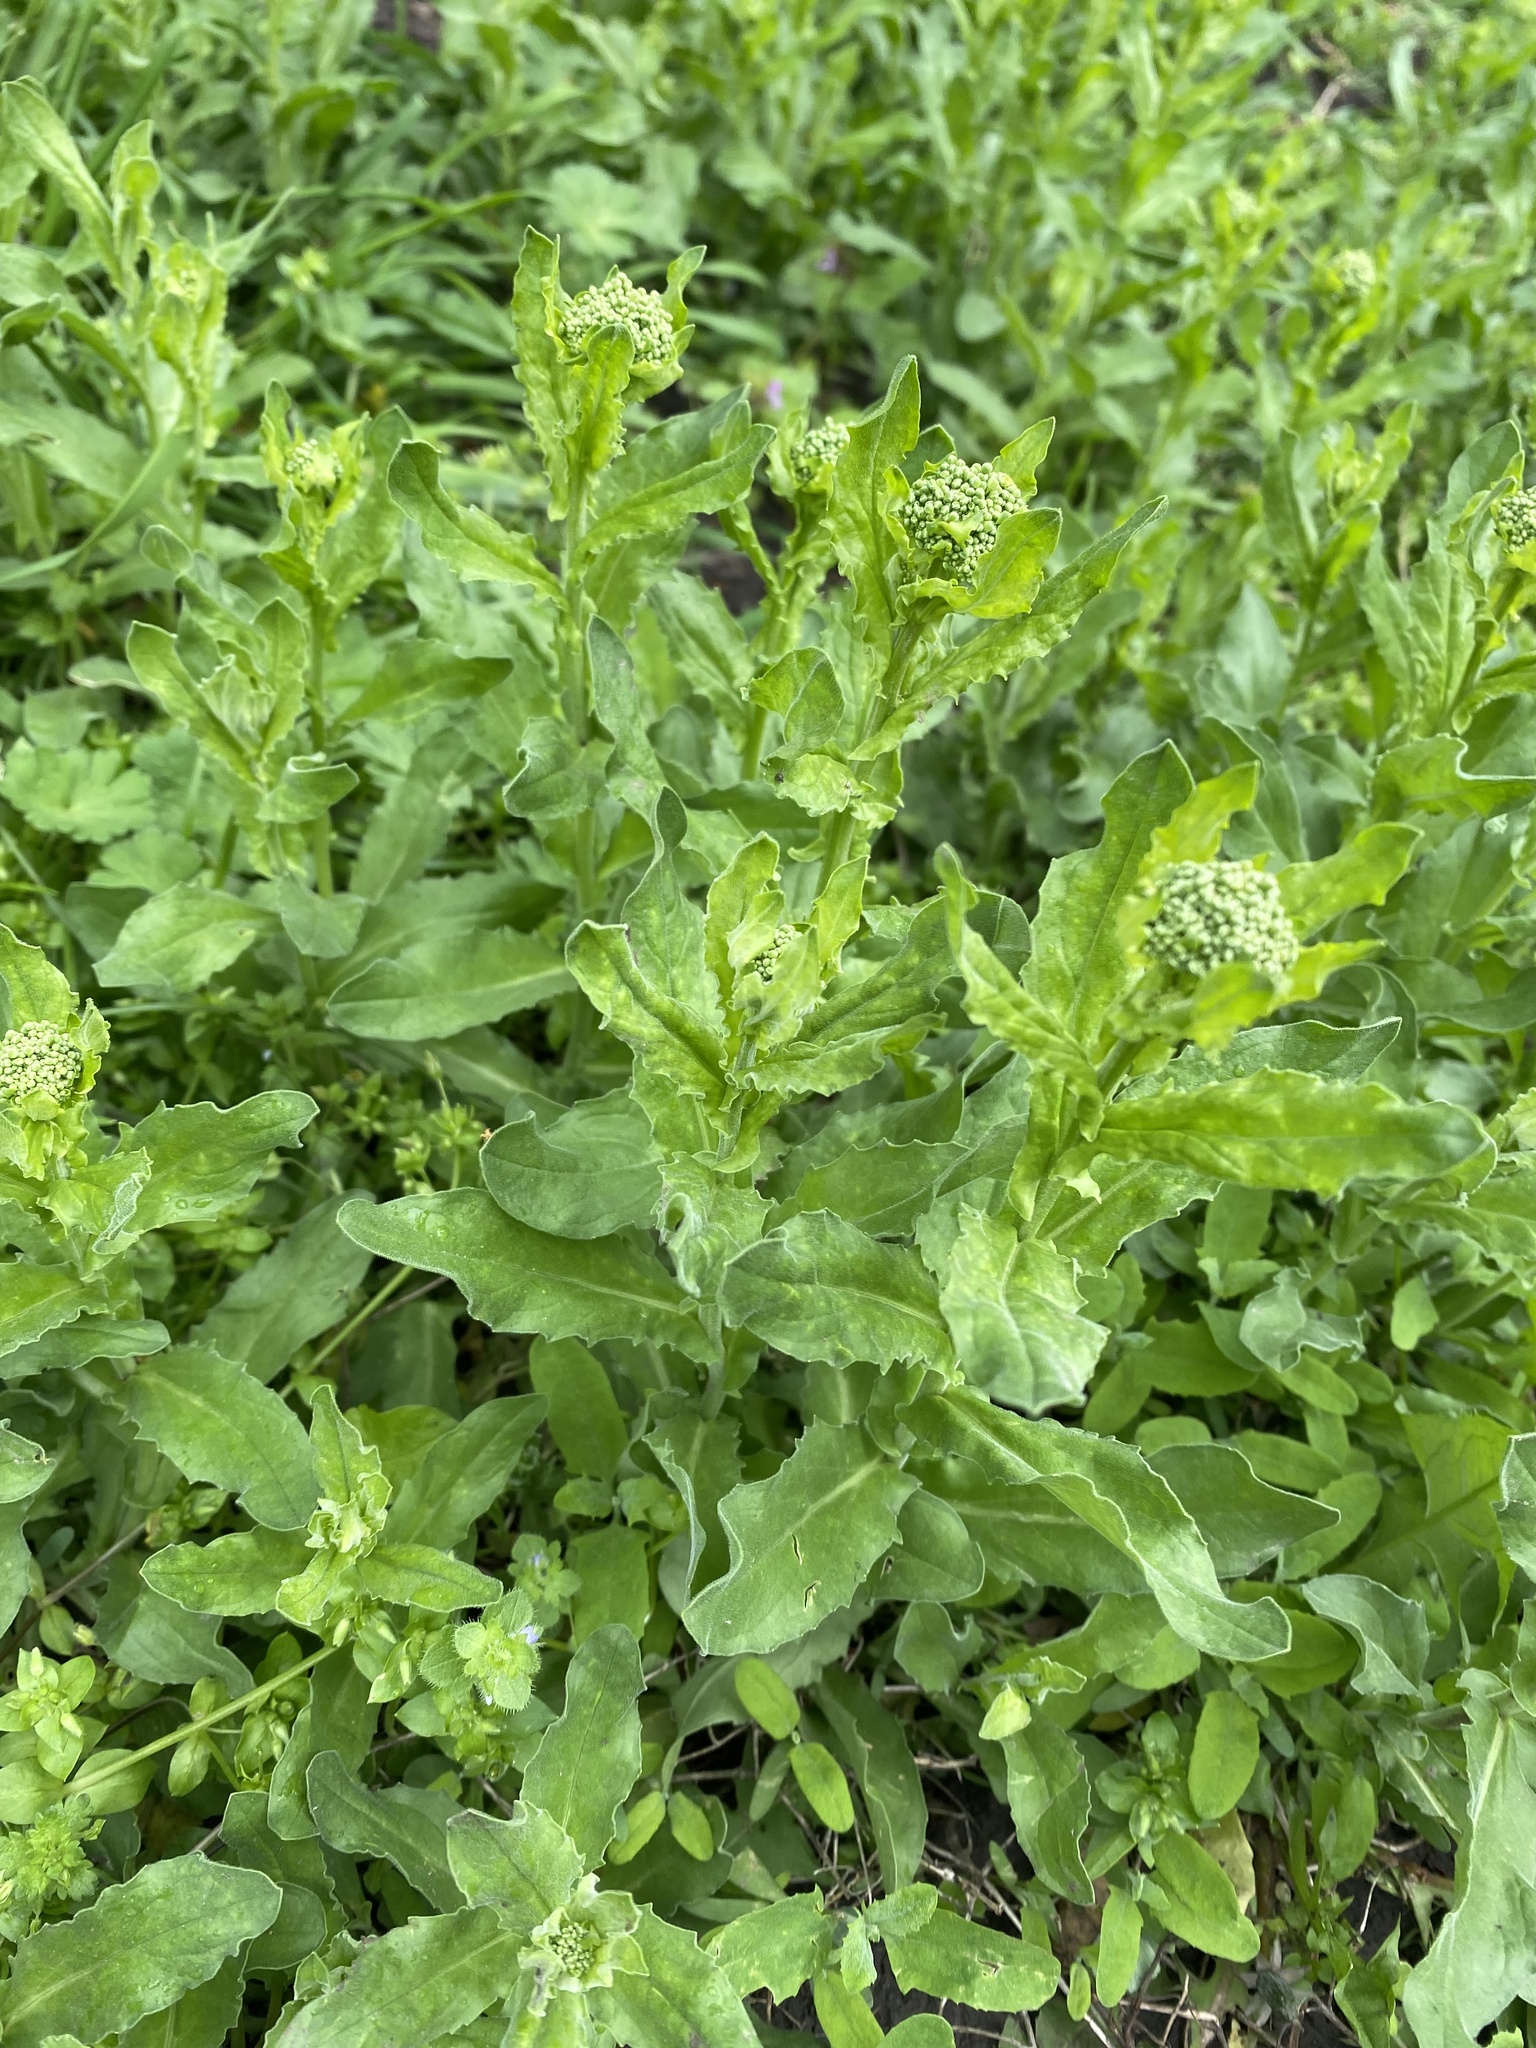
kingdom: Plantae
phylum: Tracheophyta
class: Magnoliopsida
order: Brassicales
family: Brassicaceae
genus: Lepidium
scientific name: Lepidium draba
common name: Hoary cress
